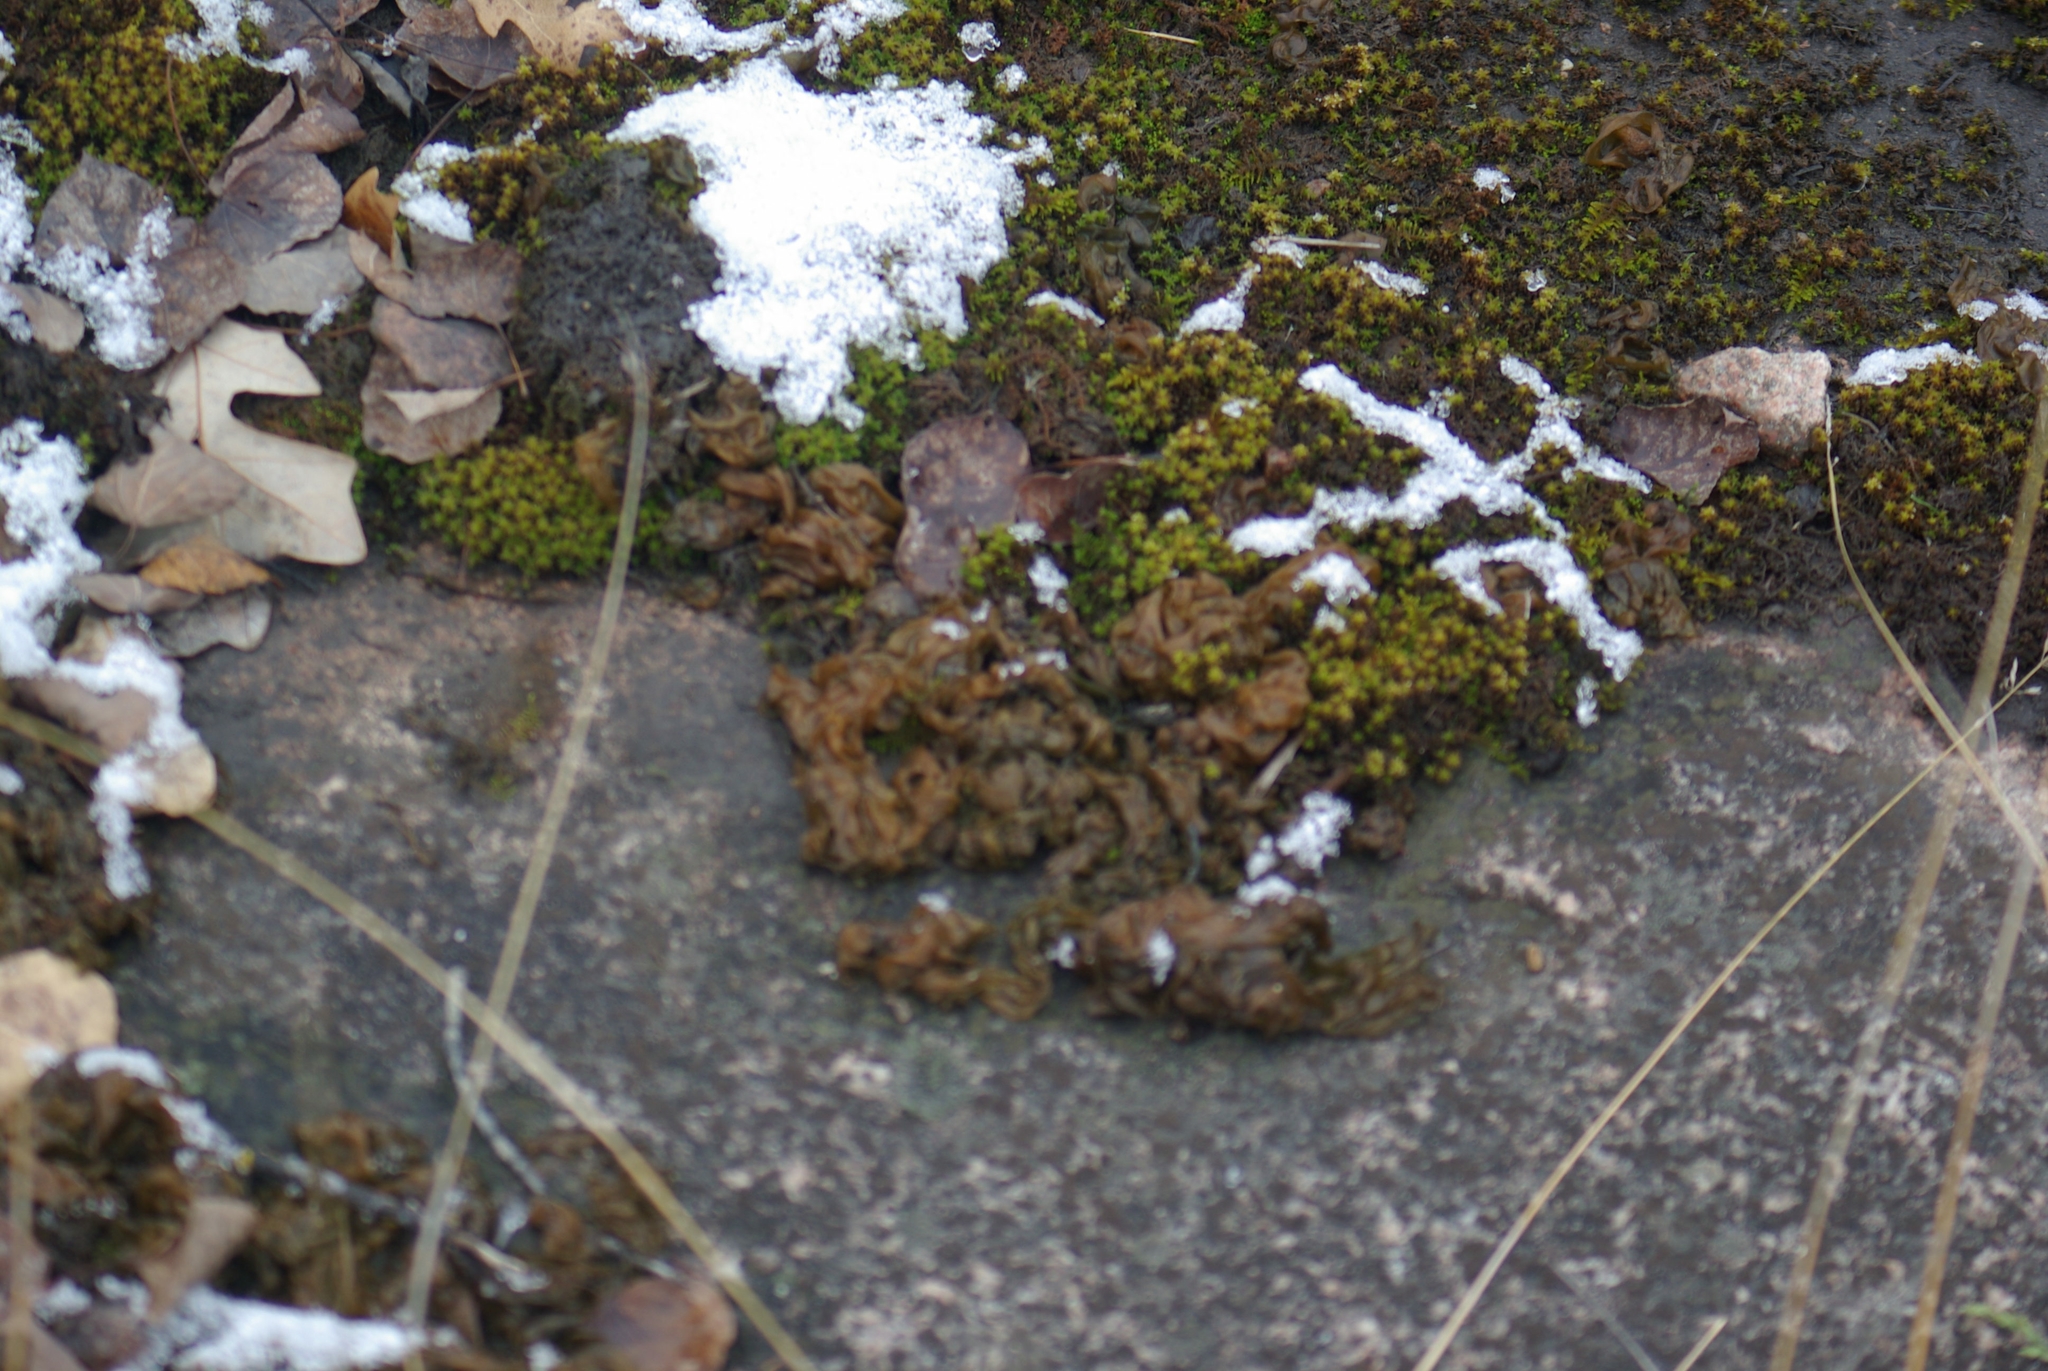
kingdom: Bacteria
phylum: Cyanobacteria
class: Cyanobacteriia
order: Cyanobacteriales
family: Nostocaceae
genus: Nostoc
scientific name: Nostoc commune
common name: Star jelly
